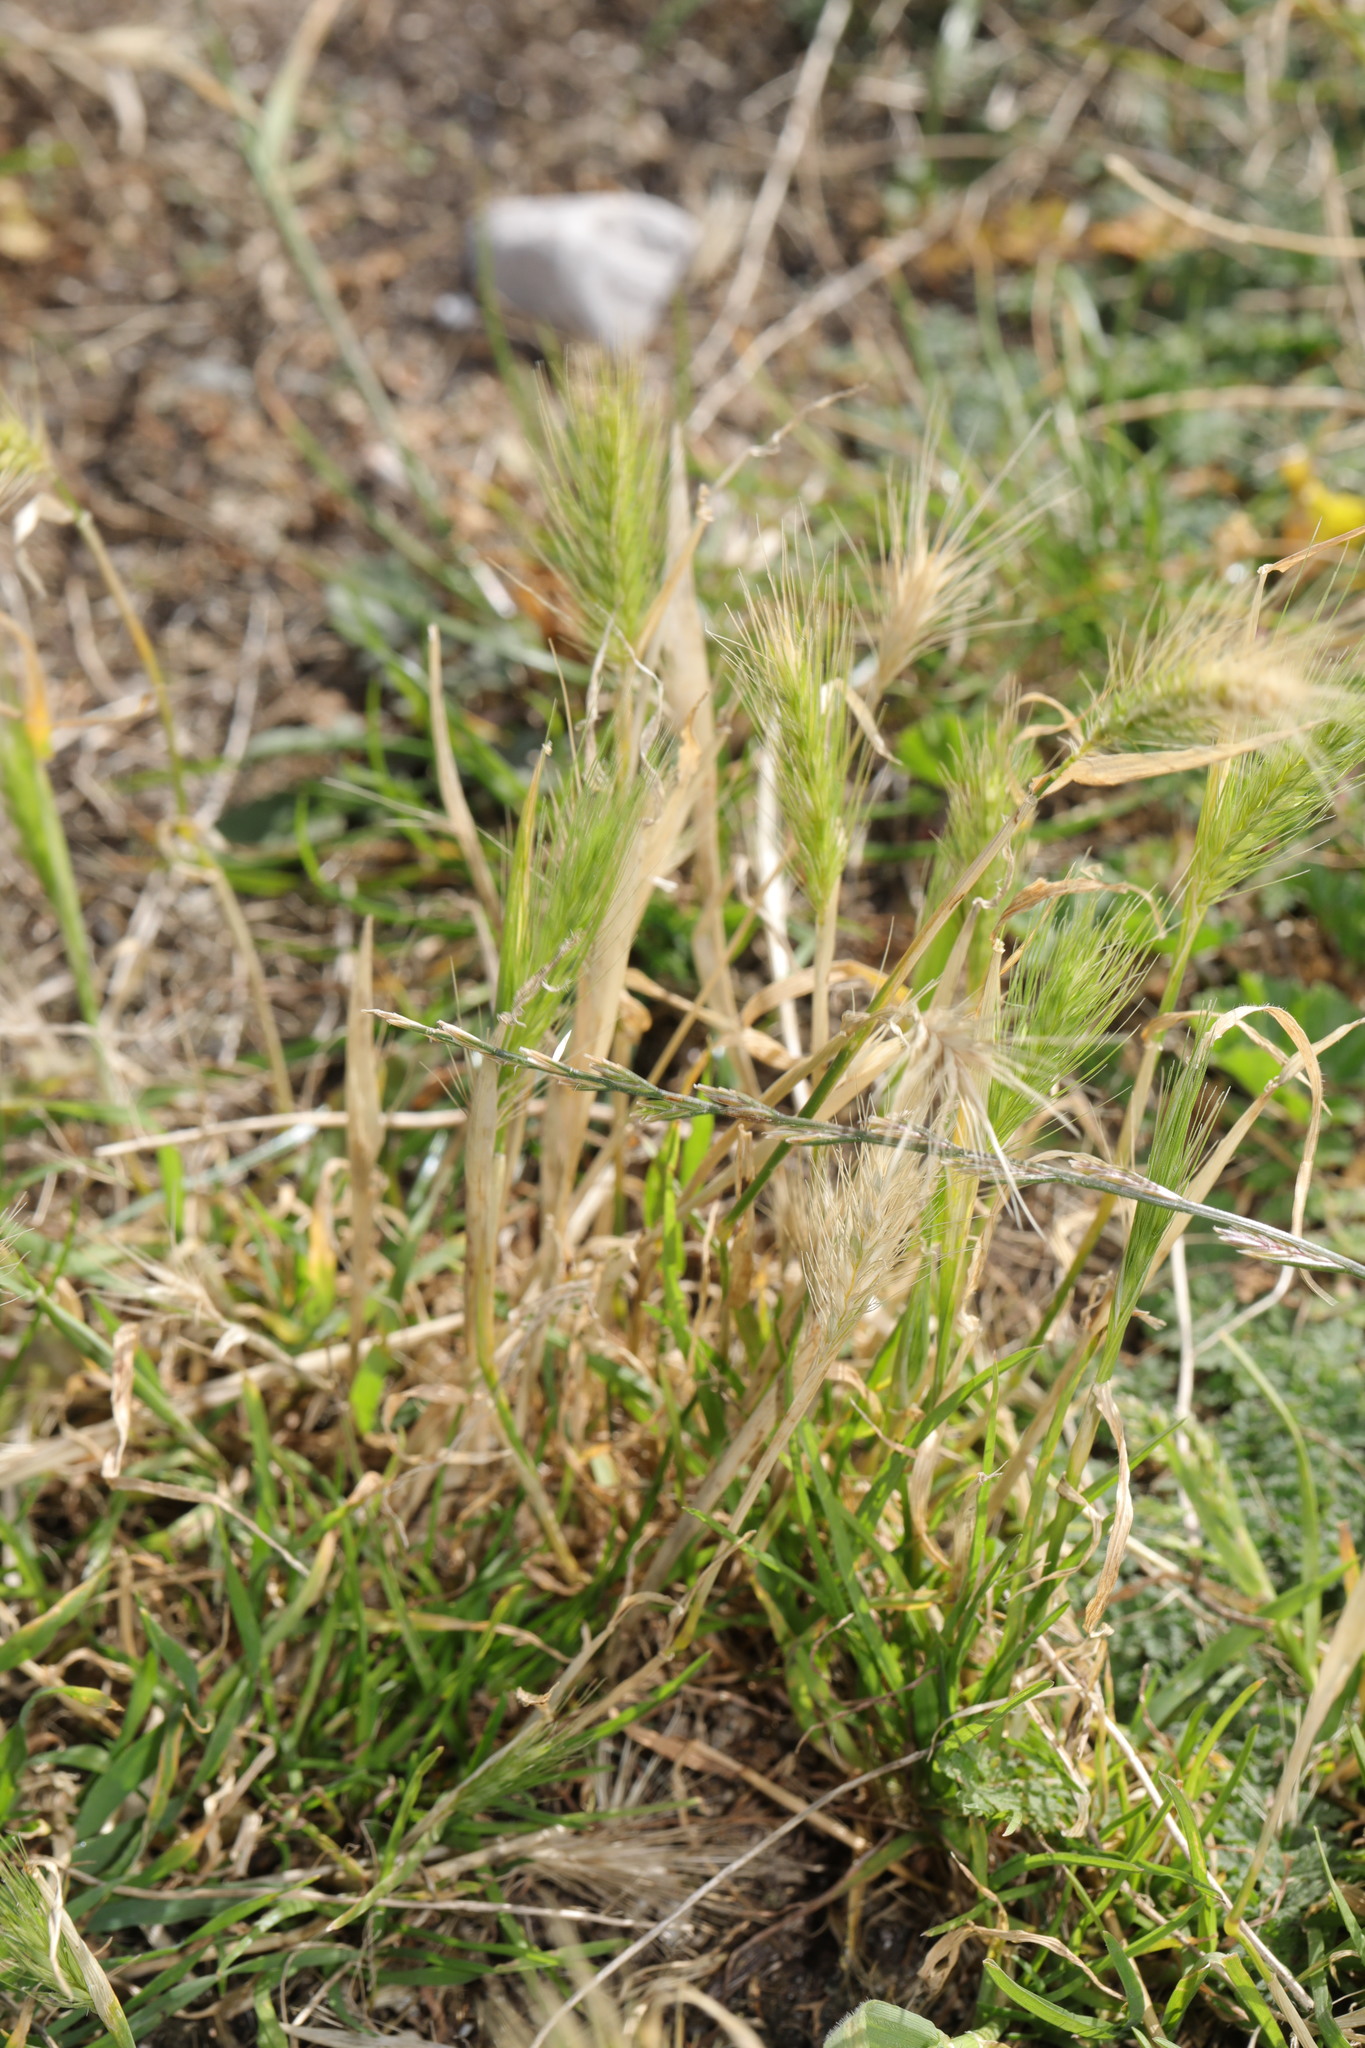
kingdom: Plantae
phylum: Tracheophyta
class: Liliopsida
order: Poales
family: Poaceae
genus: Hordeum
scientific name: Hordeum murinum
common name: Wall barley
